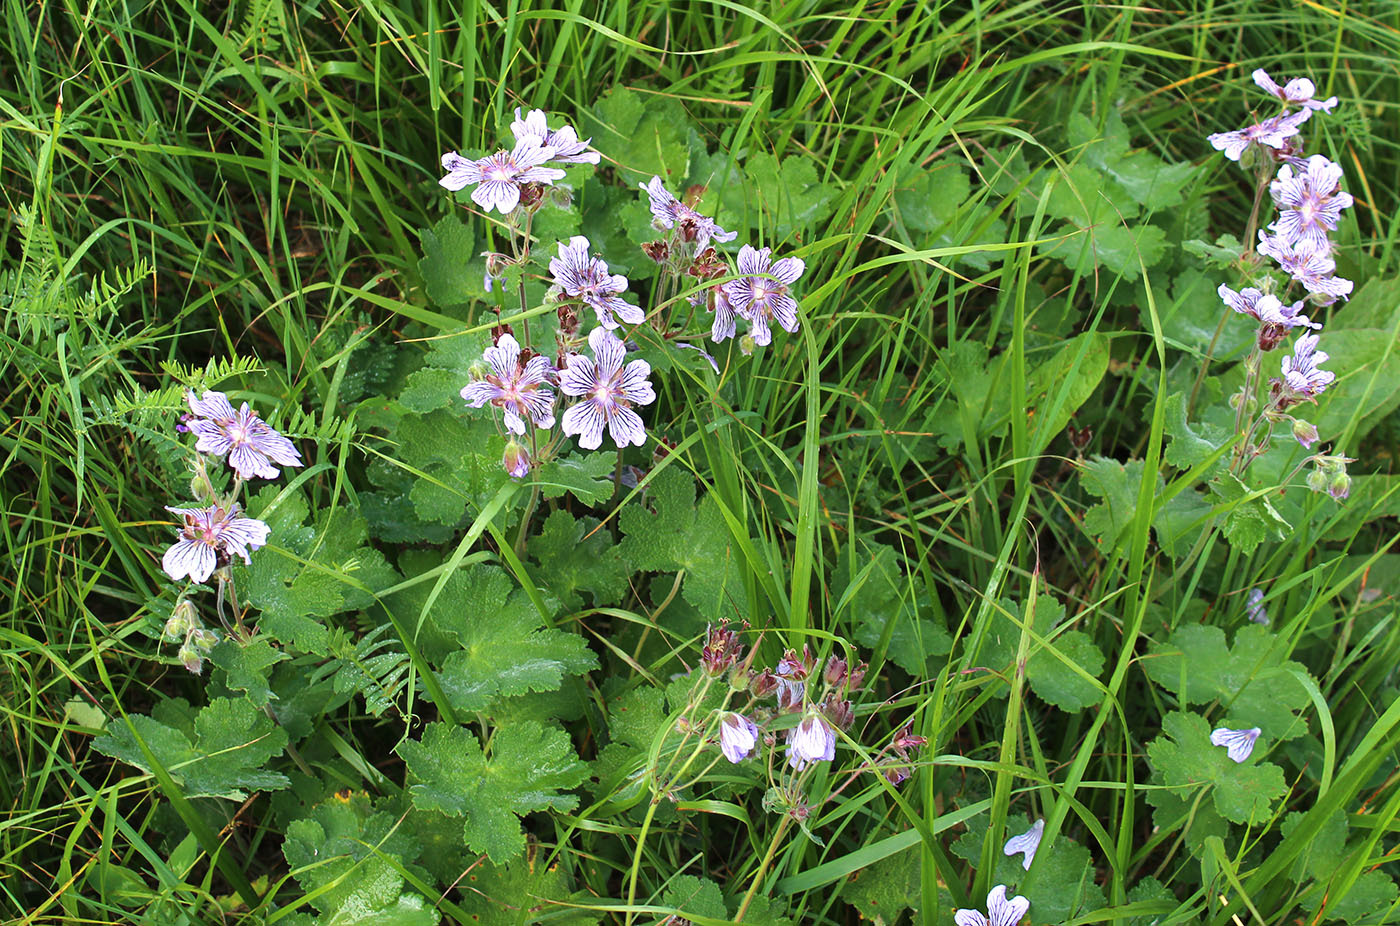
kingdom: Plantae
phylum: Tracheophyta
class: Magnoliopsida
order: Geraniales
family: Geraniaceae
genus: Geranium
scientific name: Geranium renardii
